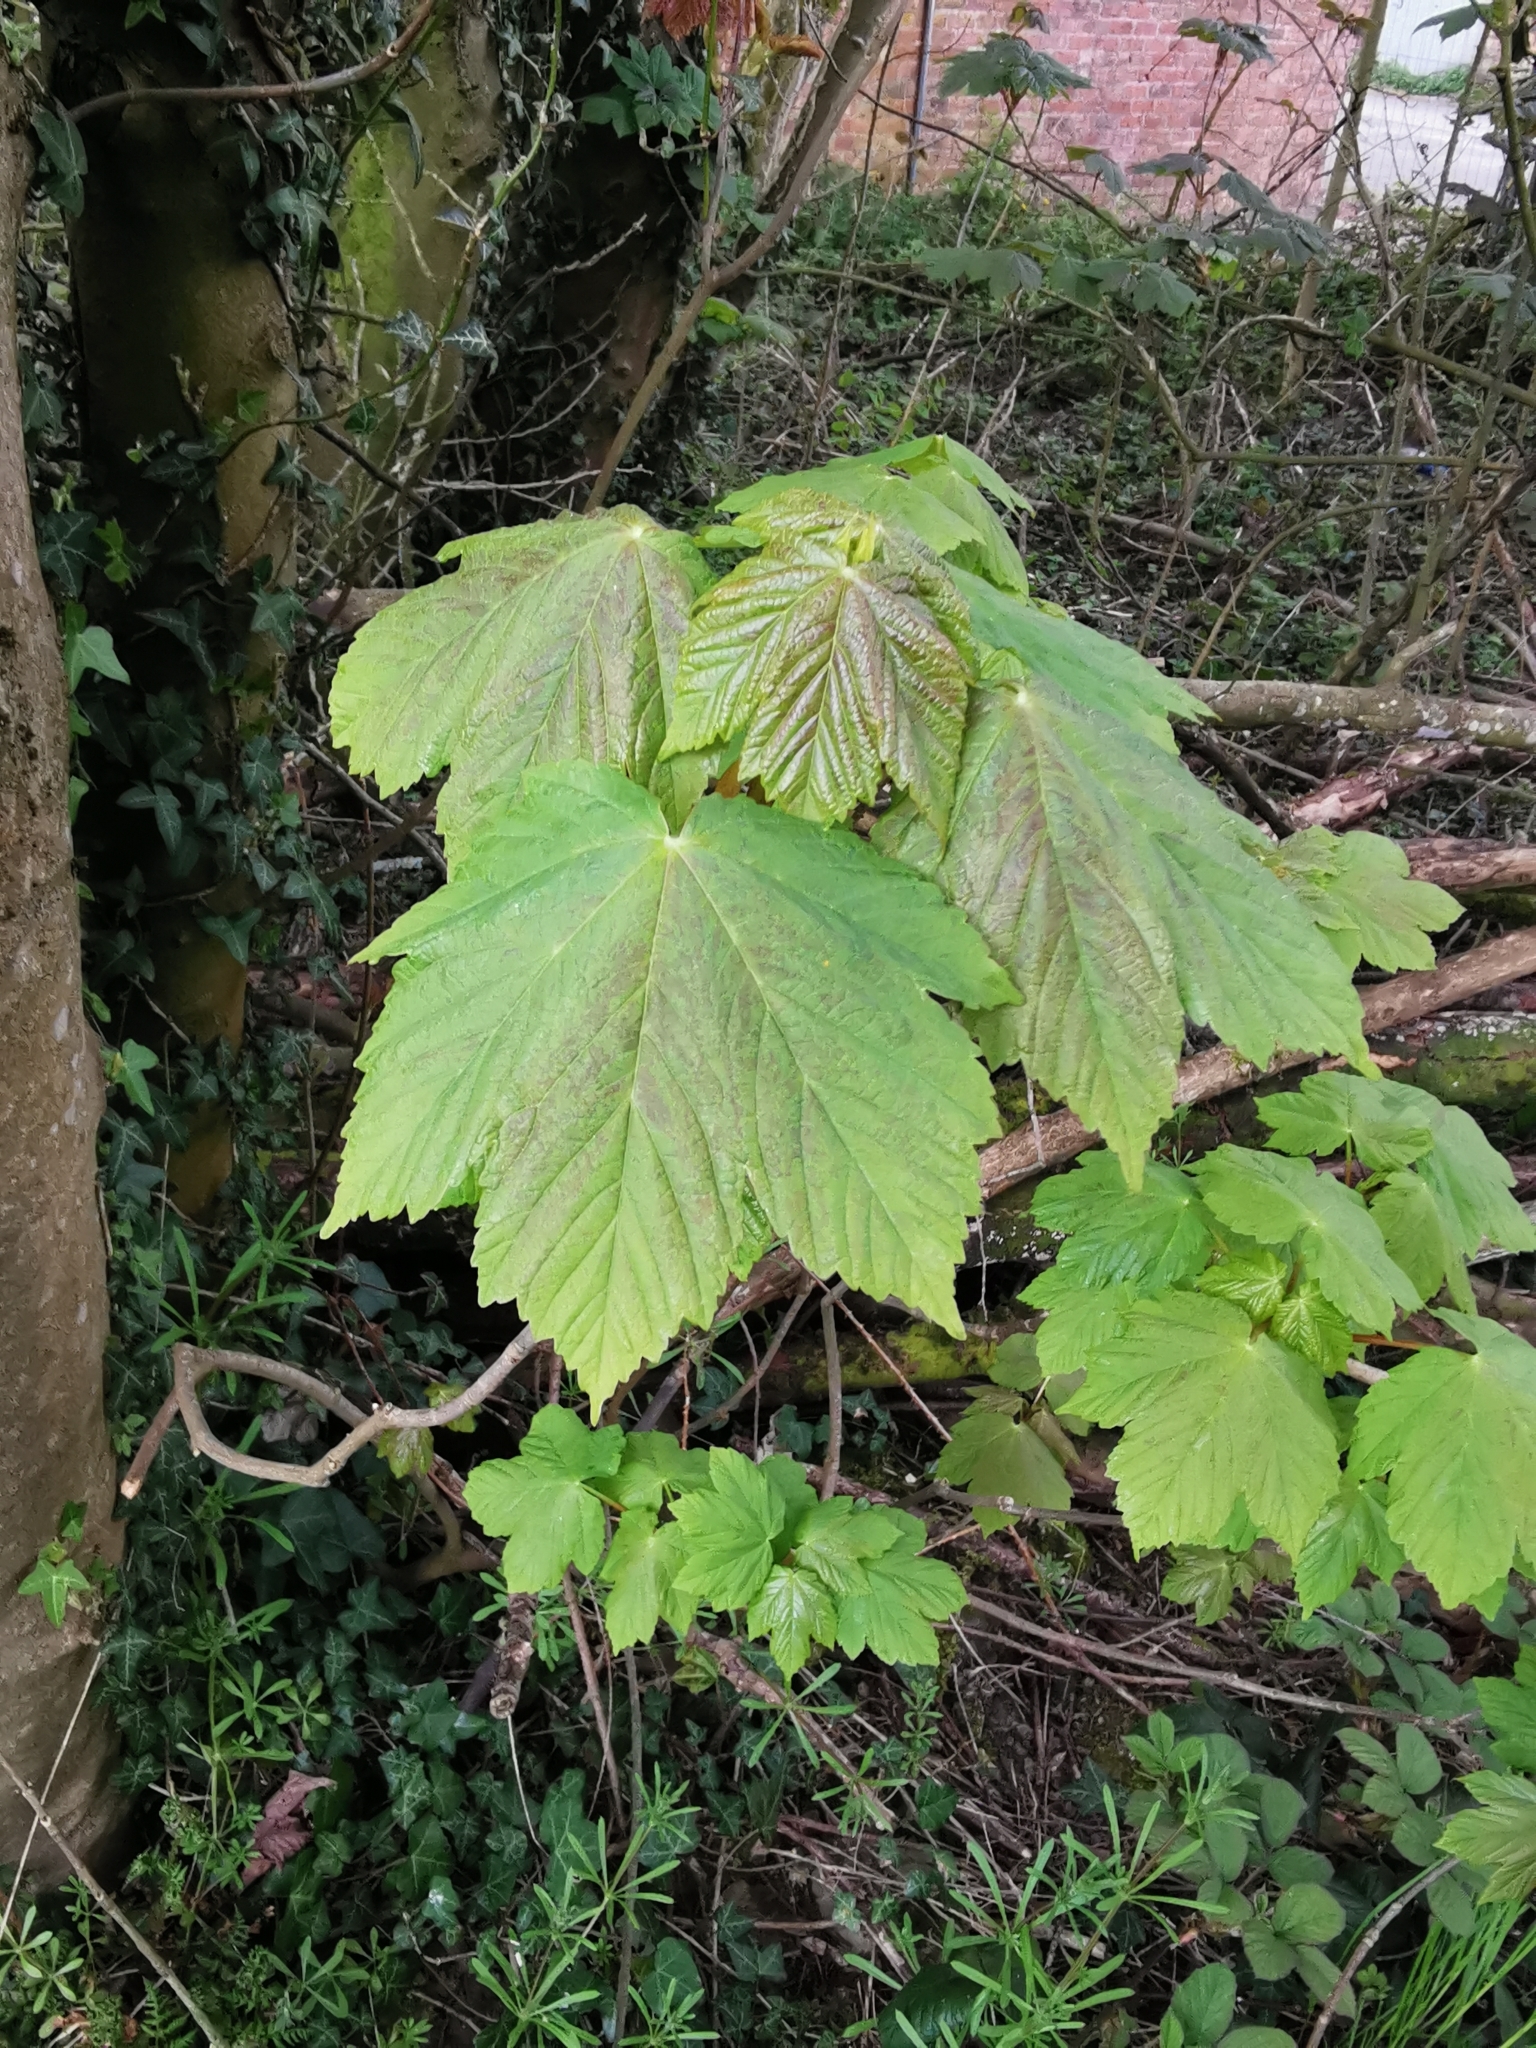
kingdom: Plantae
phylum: Tracheophyta
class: Magnoliopsida
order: Sapindales
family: Sapindaceae
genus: Acer
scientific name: Acer pseudoplatanus
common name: Sycamore
